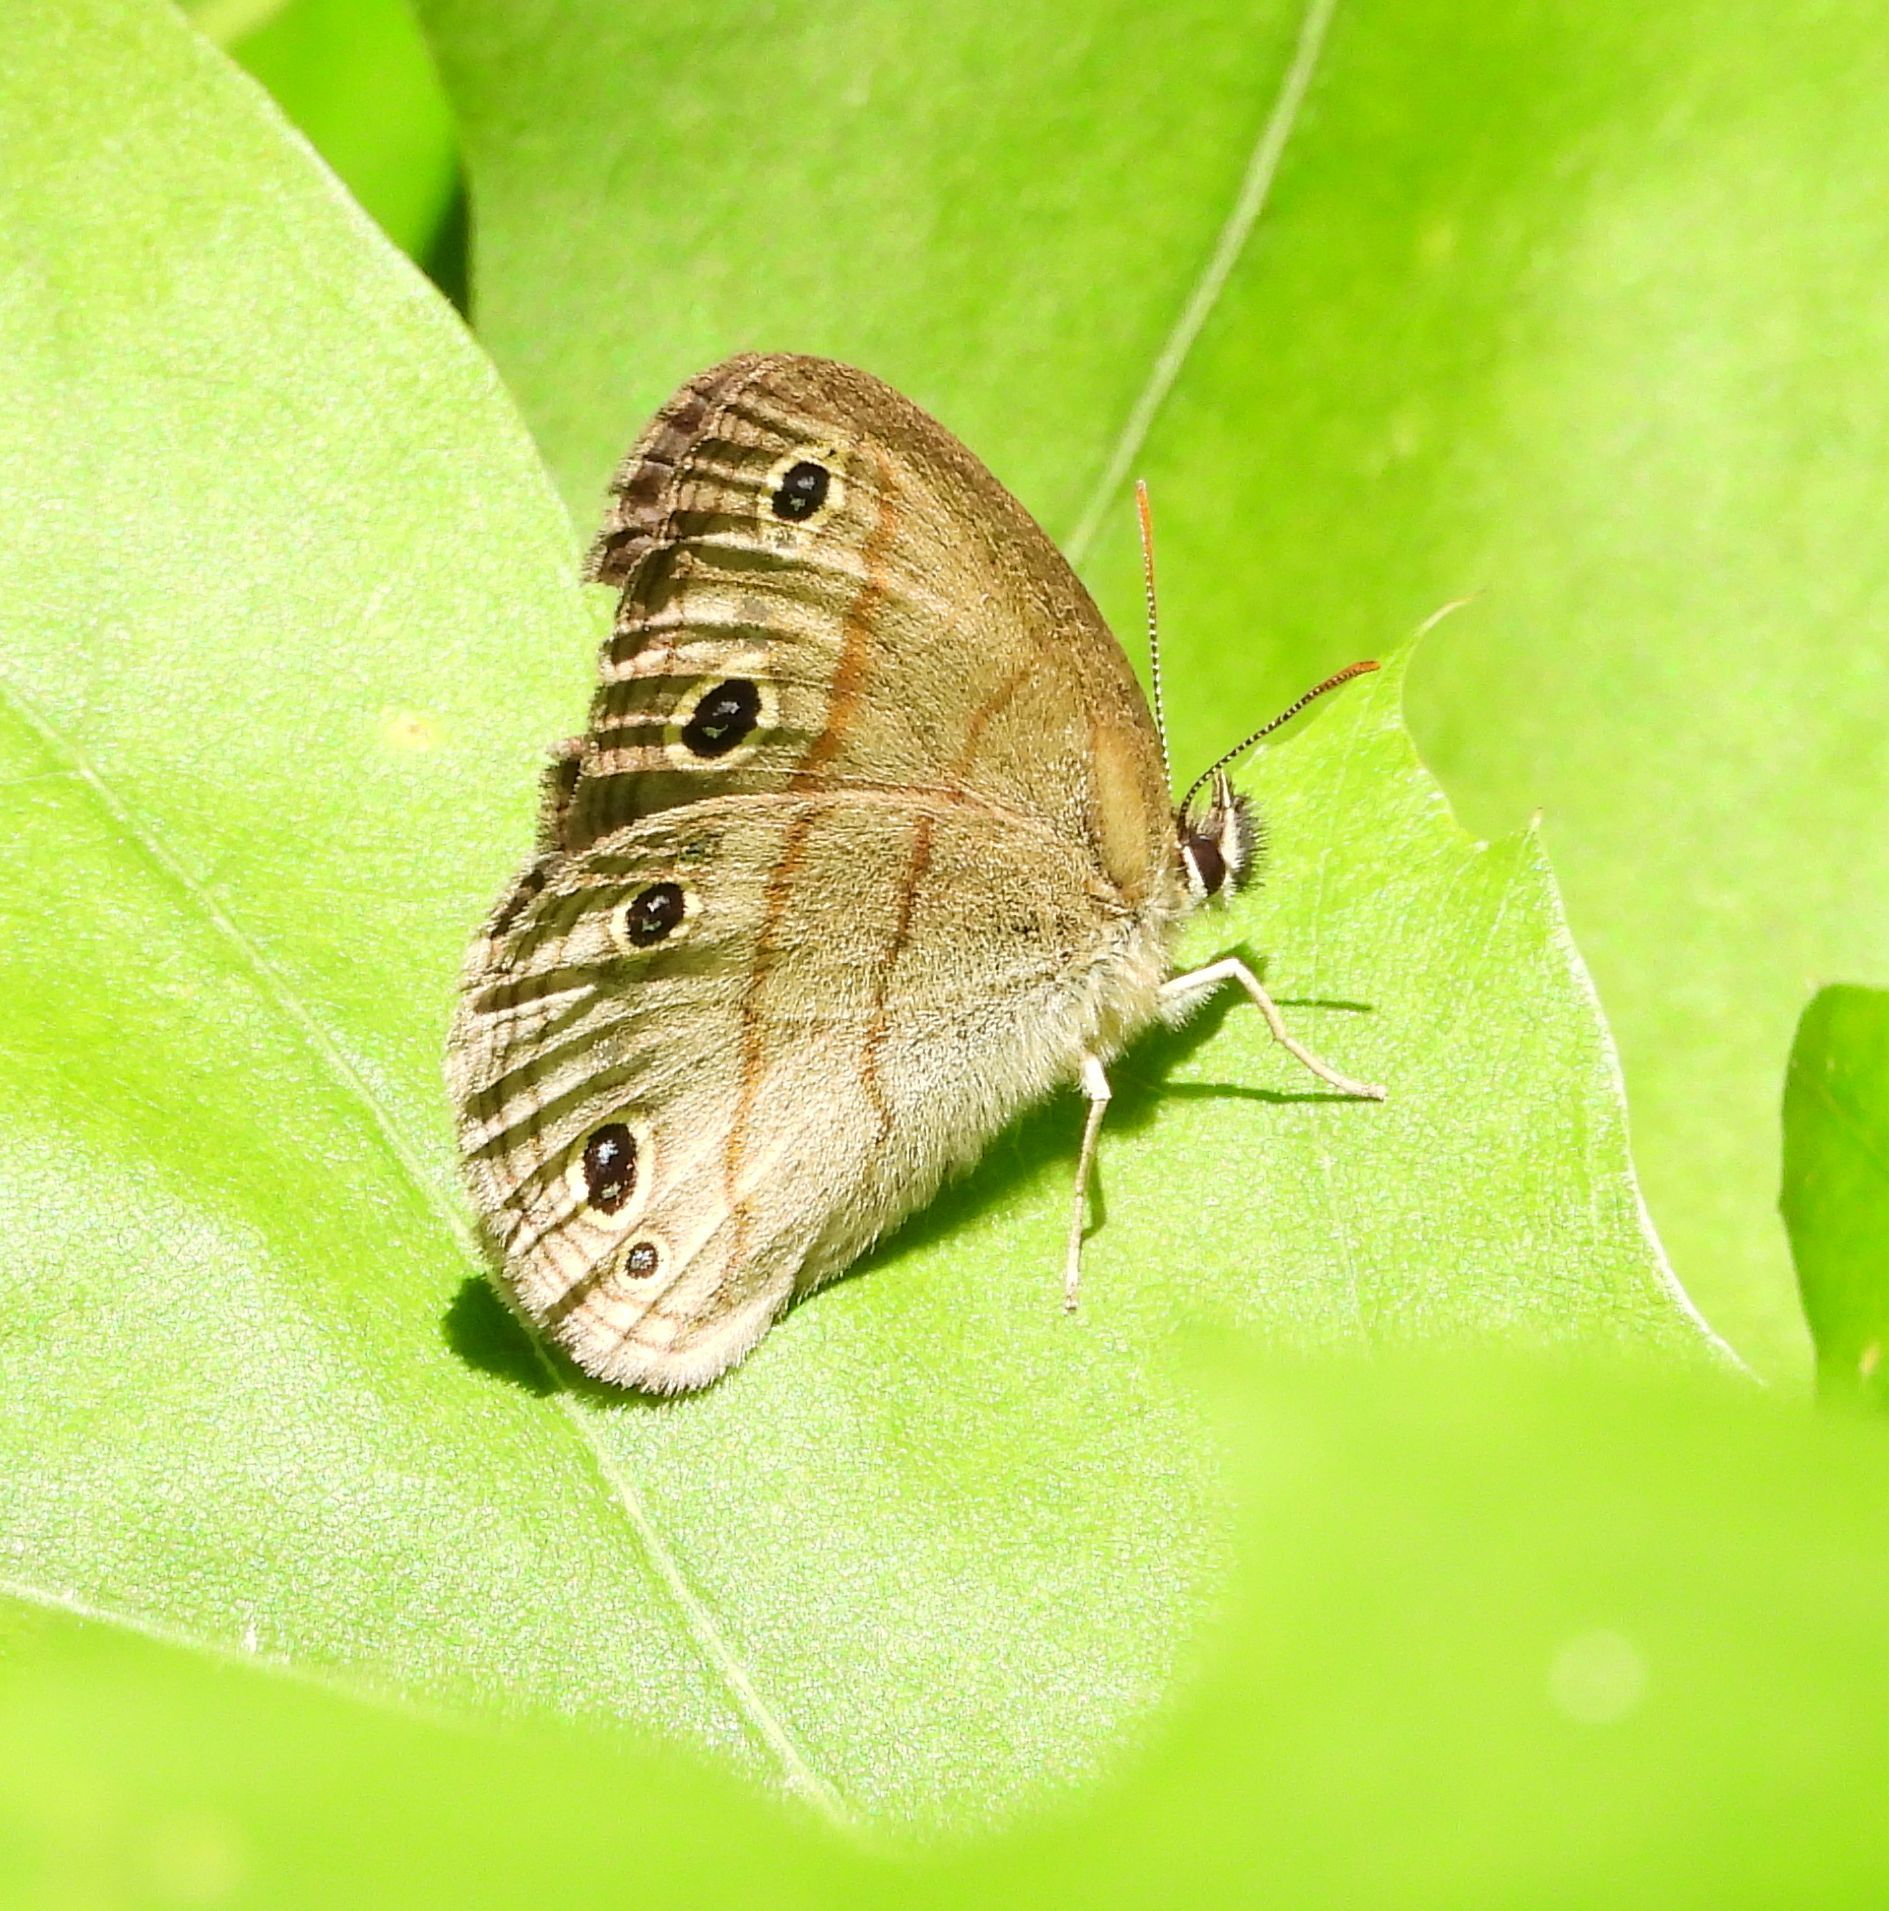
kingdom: Animalia
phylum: Arthropoda
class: Insecta
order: Lepidoptera
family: Nymphalidae
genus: Euptychia
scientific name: Euptychia cymela
